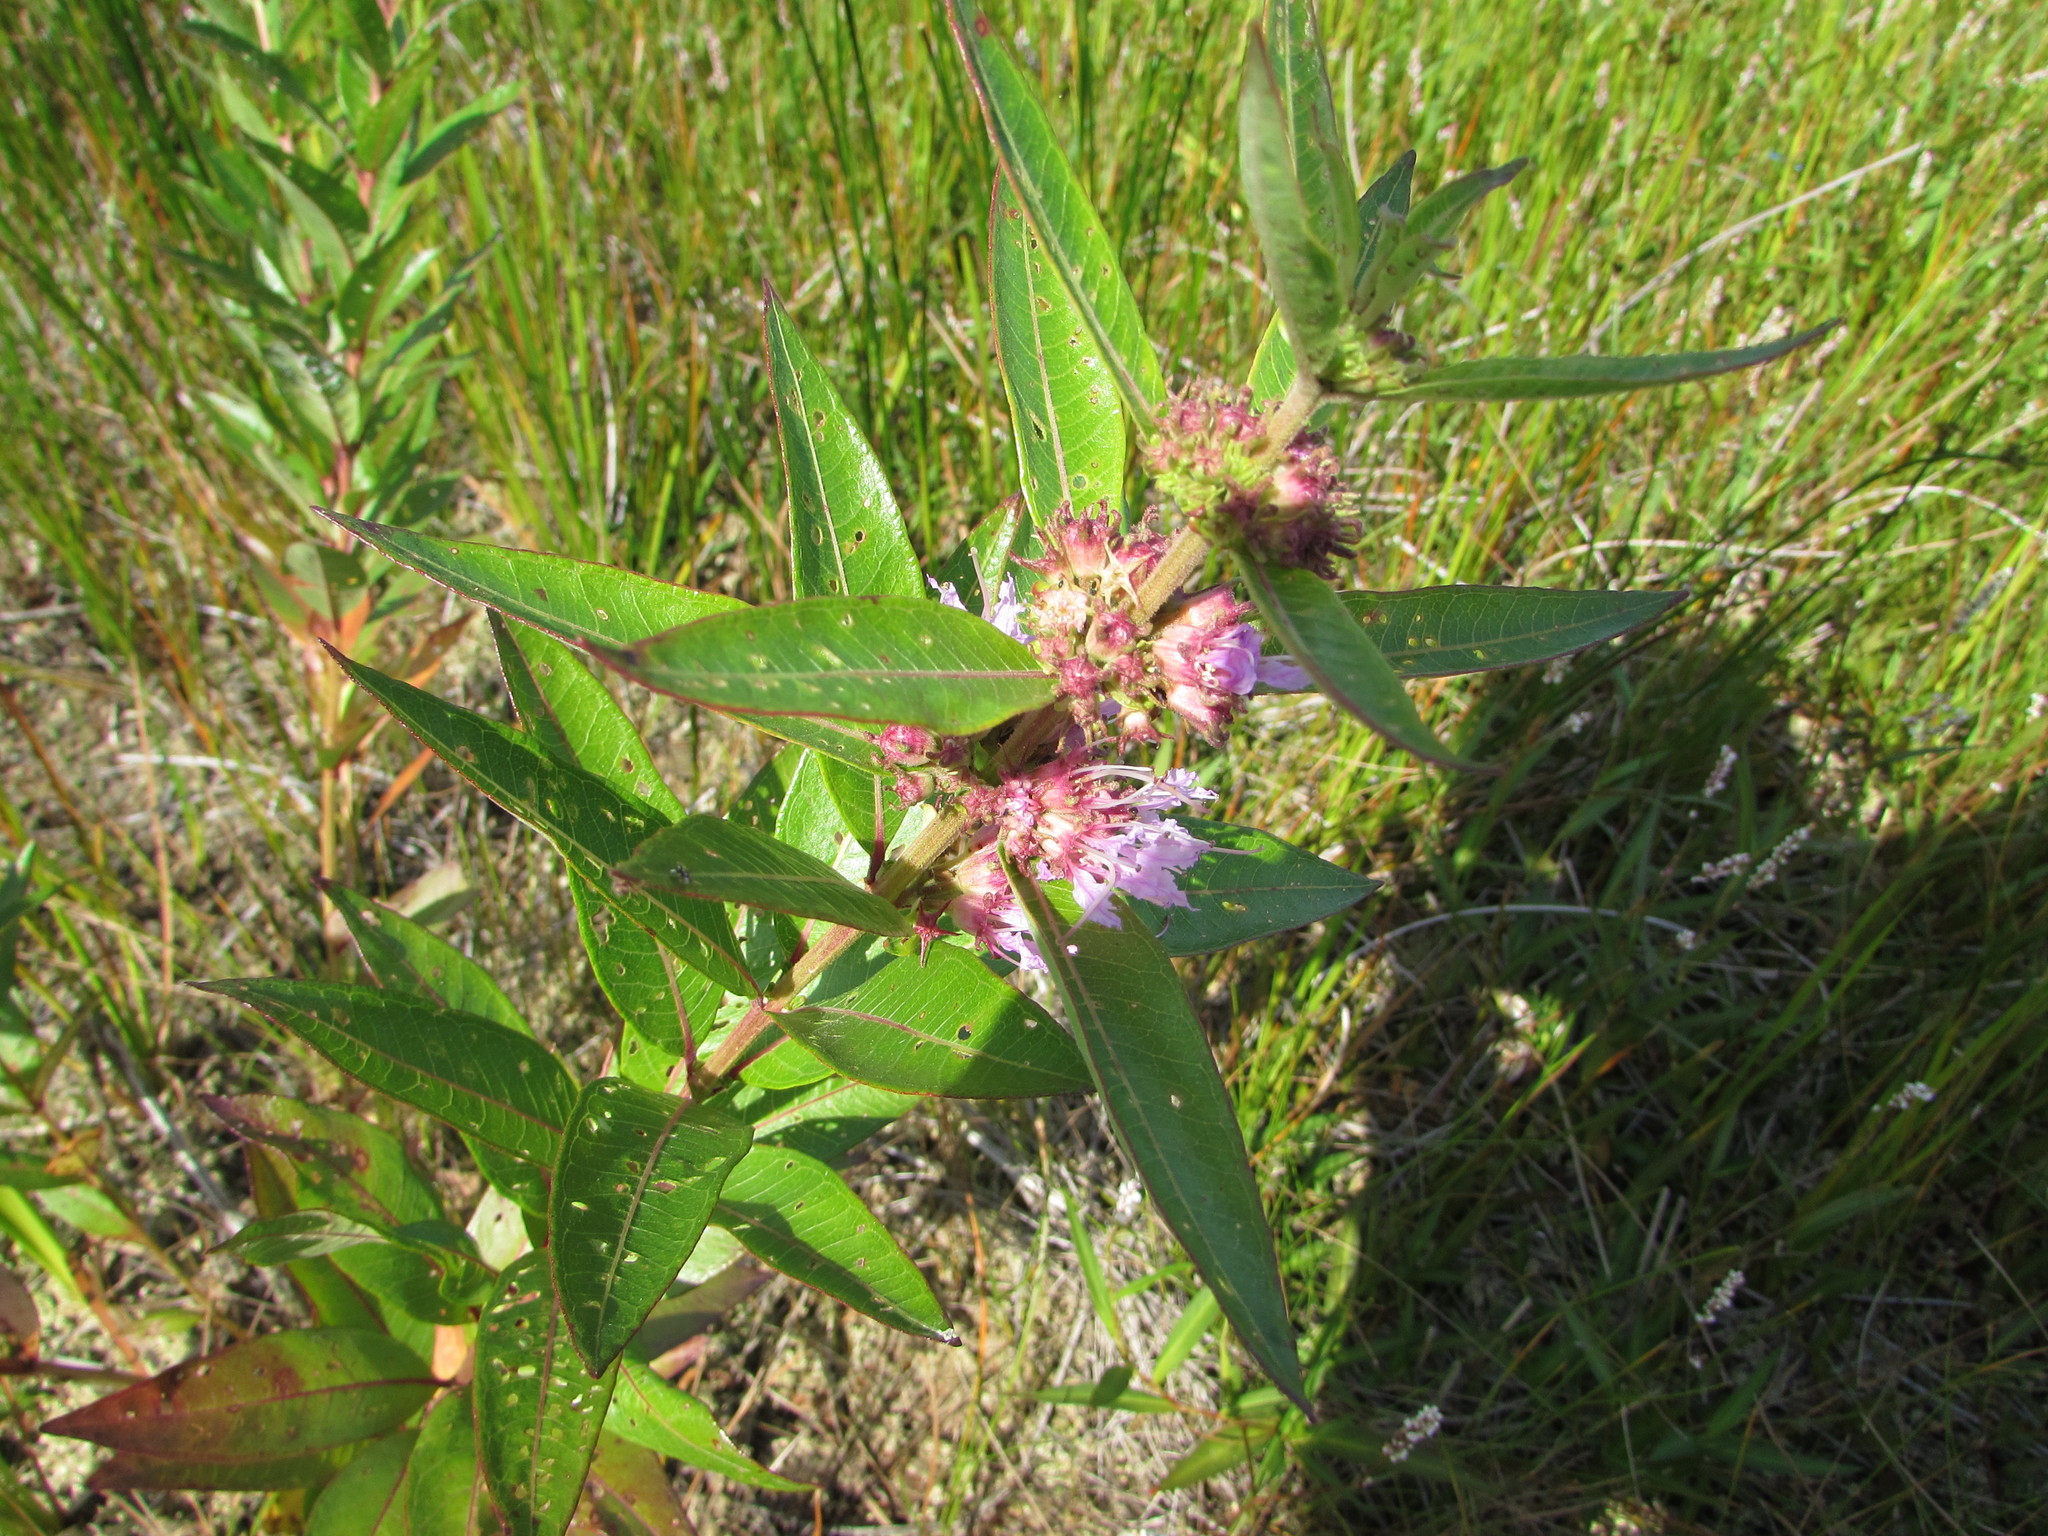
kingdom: Plantae
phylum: Tracheophyta
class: Magnoliopsida
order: Myrtales
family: Lythraceae
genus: Decodon
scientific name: Decodon verticillatus
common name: Hairy swamp loosestrife
